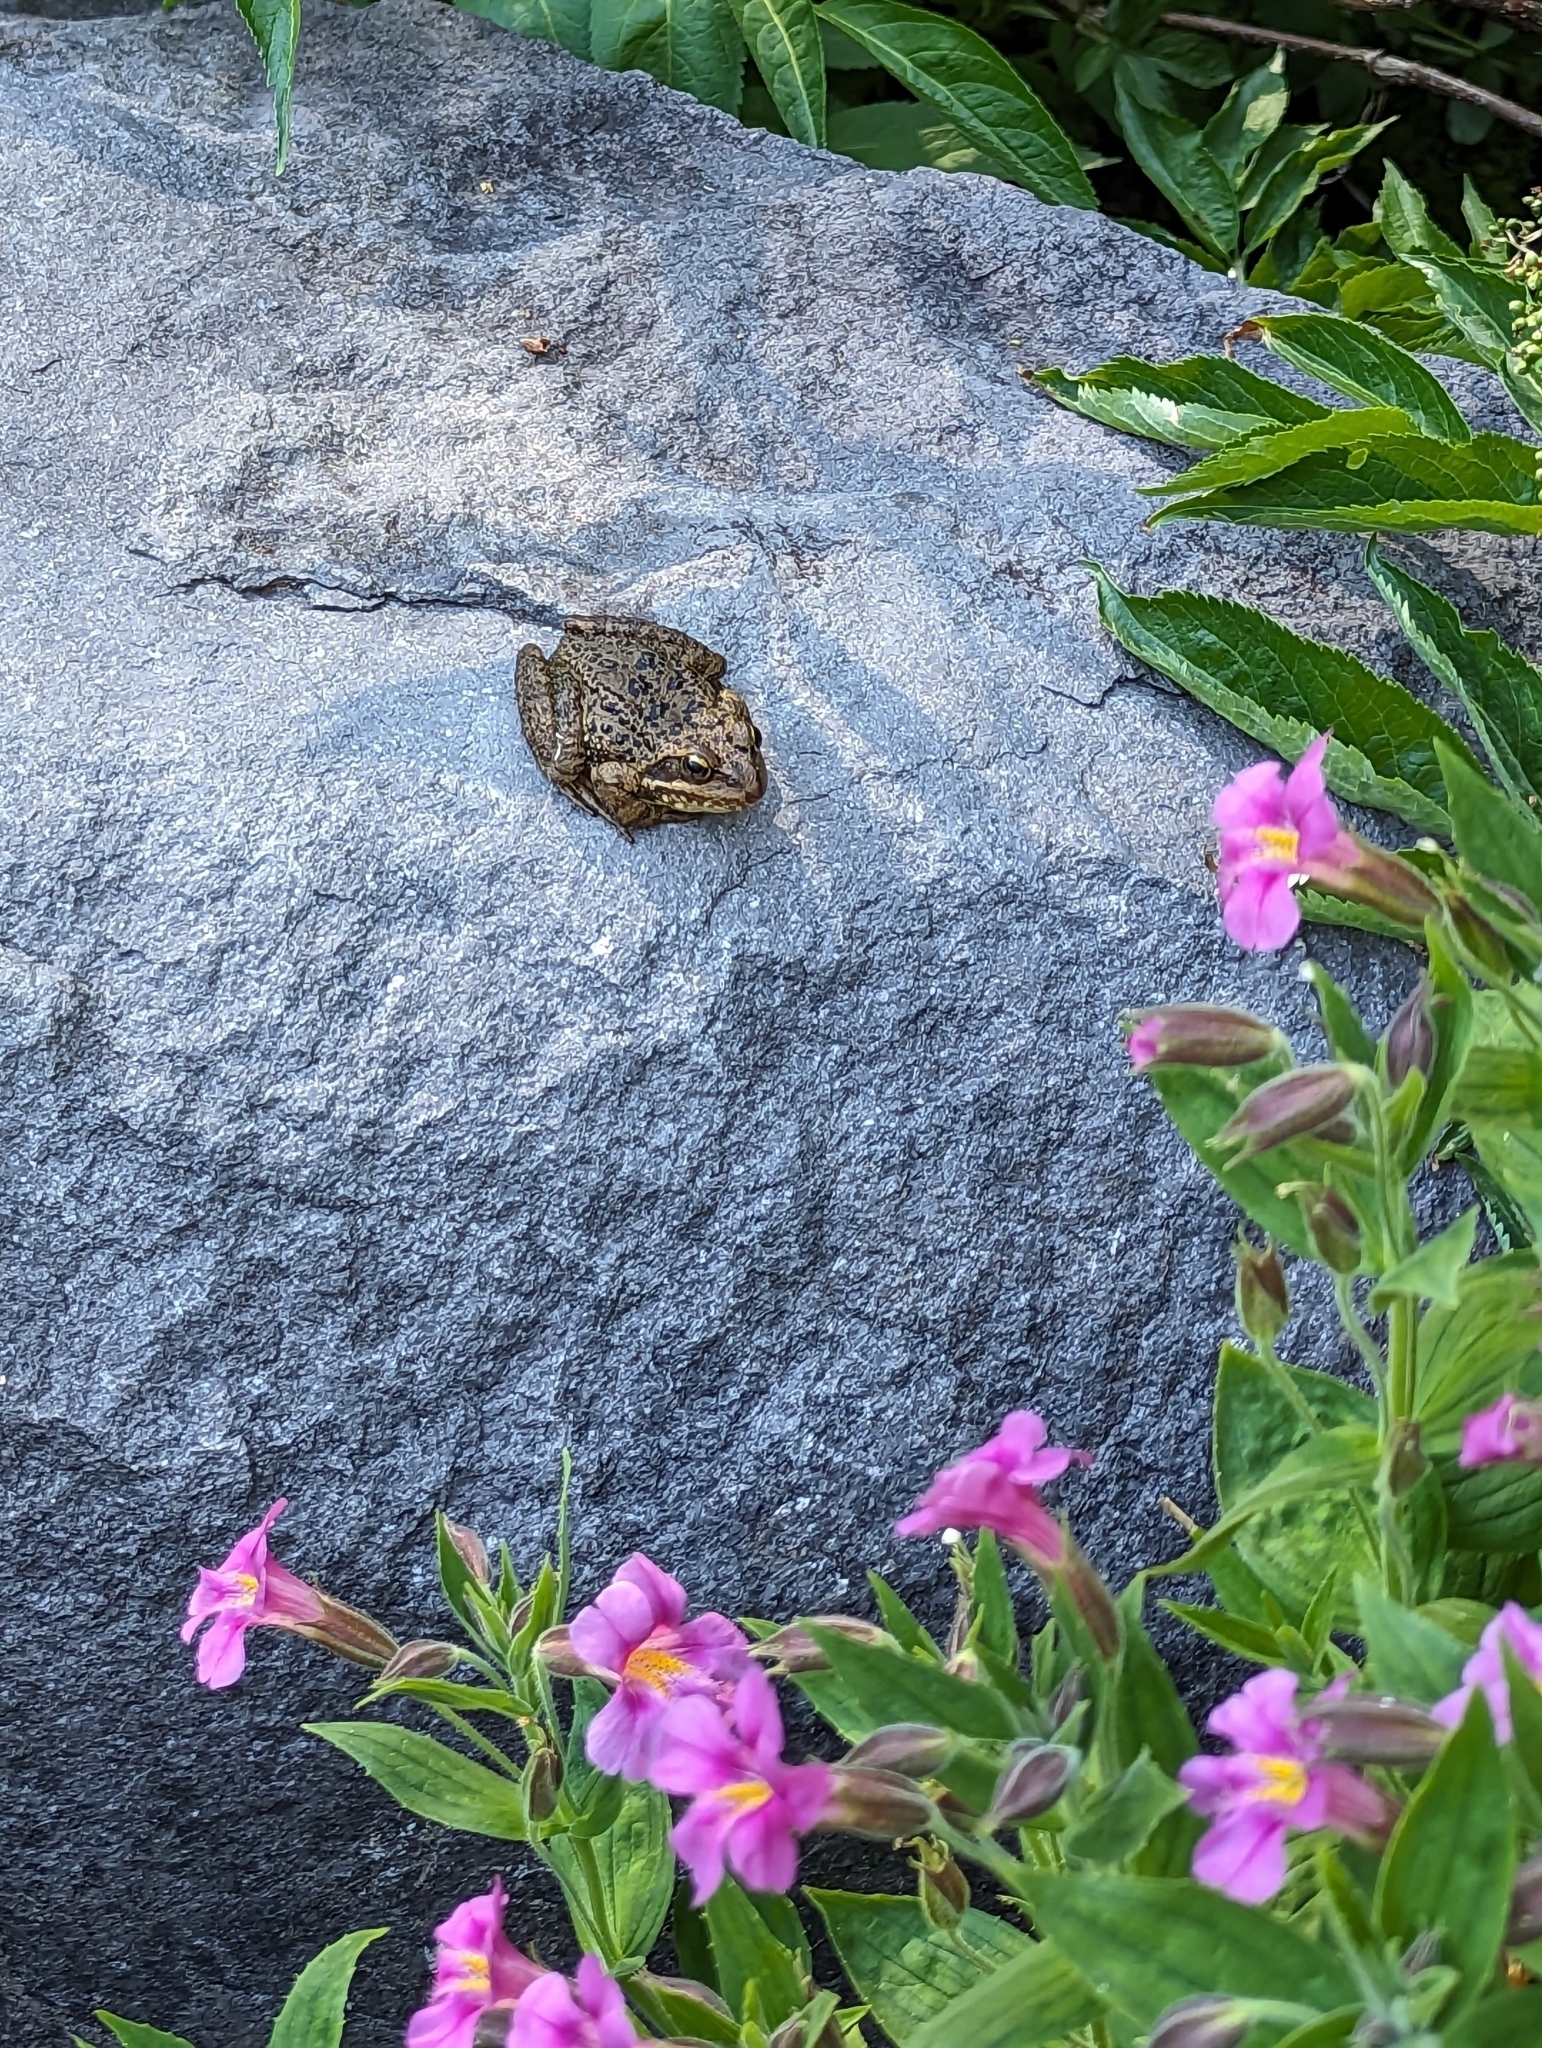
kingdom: Animalia
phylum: Chordata
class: Amphibia
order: Anura
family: Ranidae
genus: Rana
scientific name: Rana cascadae
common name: Cascades frog
